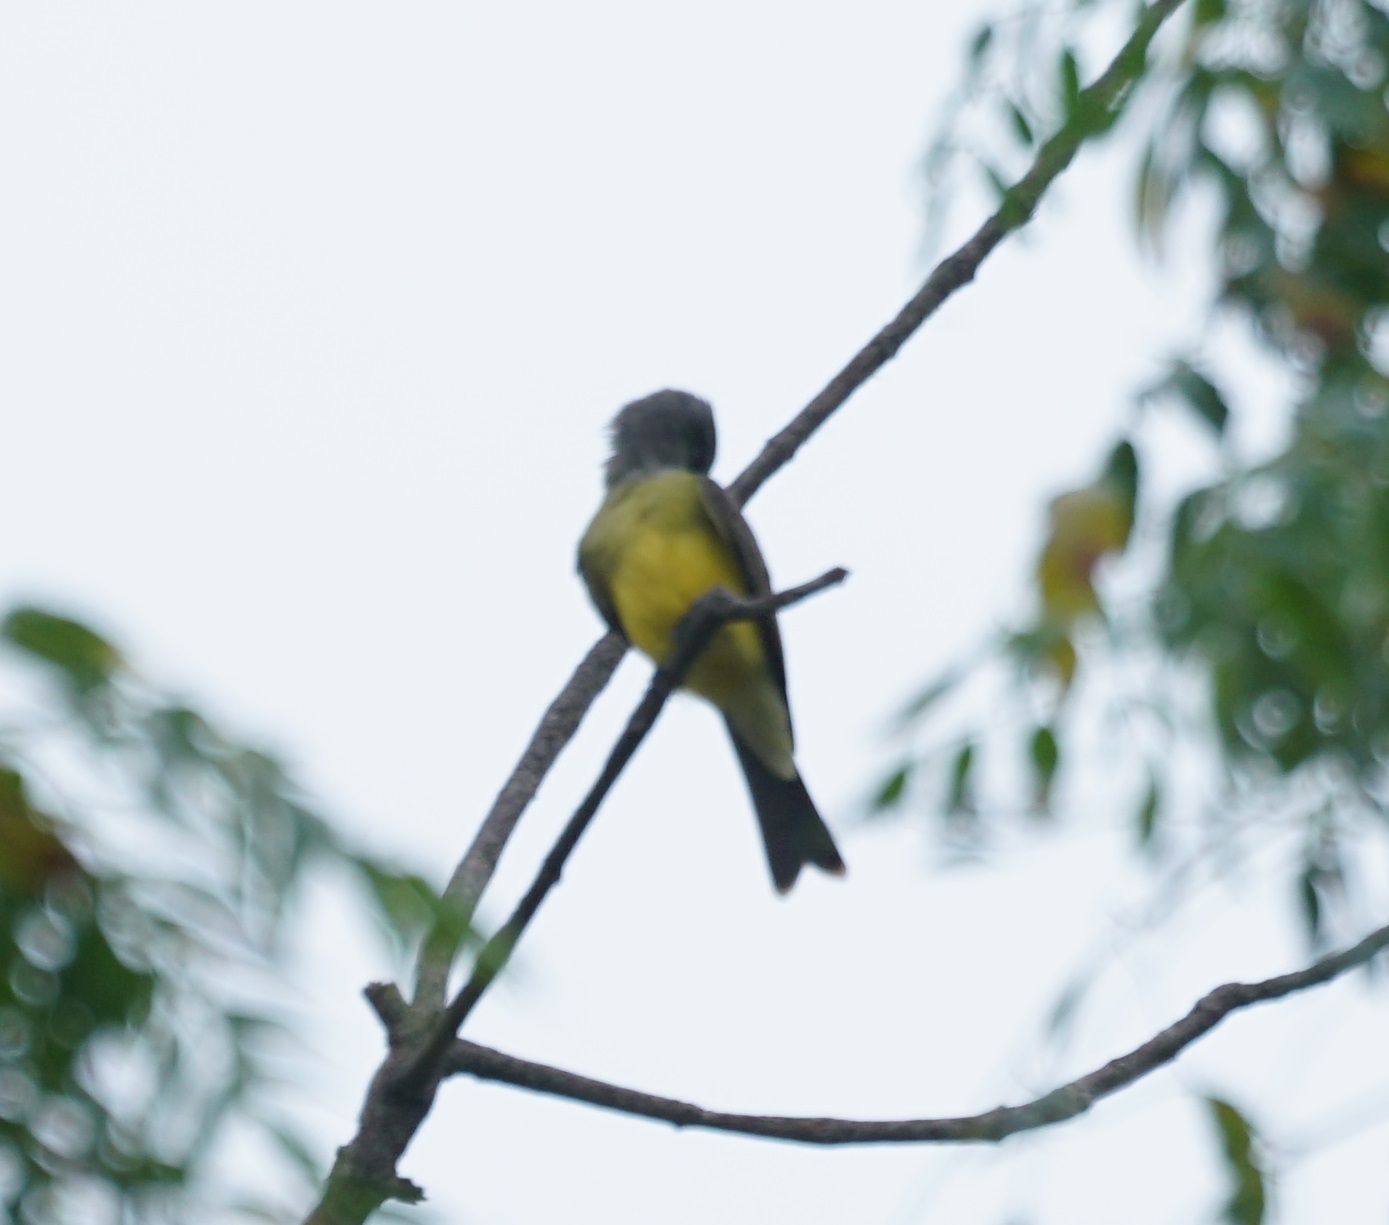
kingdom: Animalia
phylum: Chordata
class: Aves
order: Passeriformes
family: Tyrannidae
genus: Tyrannus
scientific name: Tyrannus melancholicus
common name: Tropical kingbird
